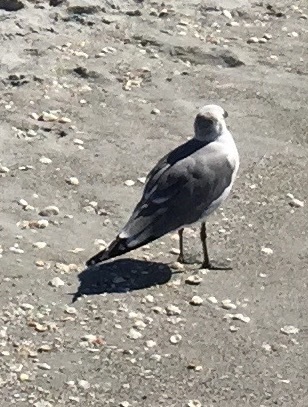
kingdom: Animalia
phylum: Chordata
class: Aves
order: Charadriiformes
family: Laridae
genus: Leucophaeus
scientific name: Leucophaeus atricilla
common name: Laughing gull
